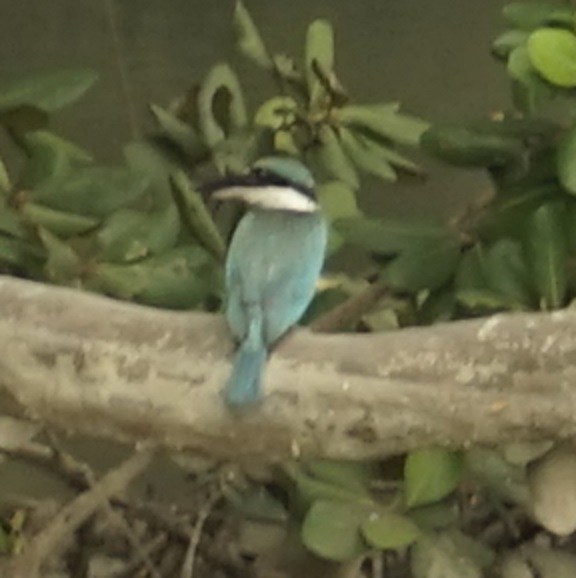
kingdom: Animalia
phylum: Chordata
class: Aves
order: Coraciiformes
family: Alcedinidae
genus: Todiramphus
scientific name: Todiramphus chloris
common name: Collared kingfisher
